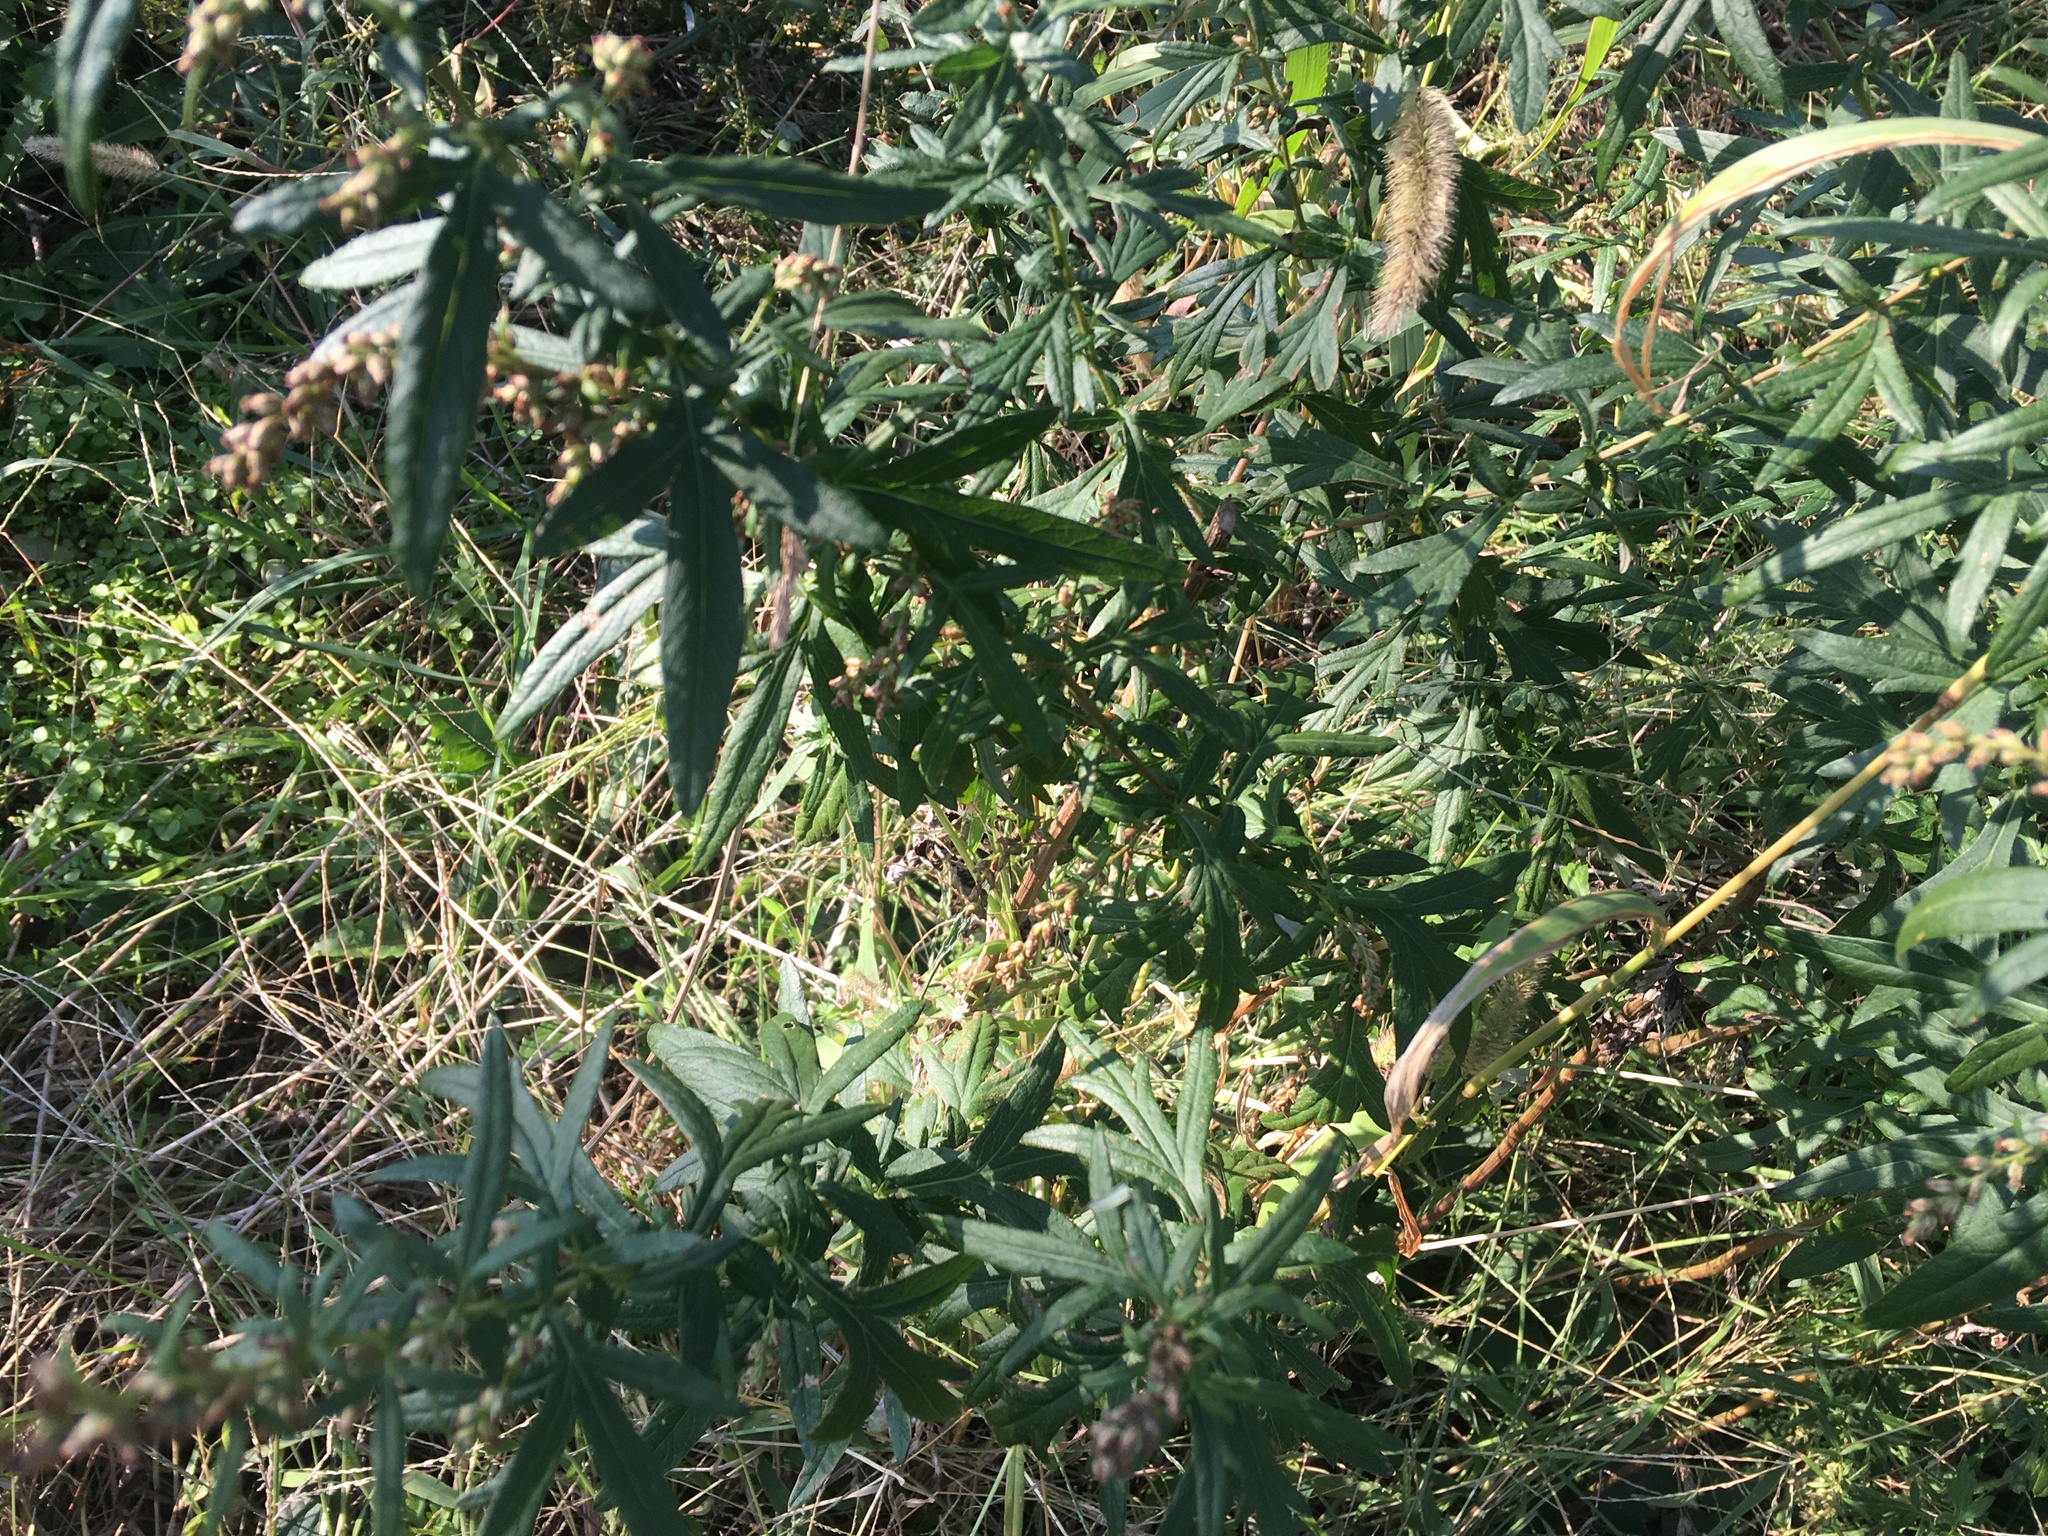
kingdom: Plantae
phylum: Tracheophyta
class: Magnoliopsida
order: Asterales
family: Asteraceae
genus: Artemisia
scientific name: Artemisia vulgaris
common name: Mugwort
